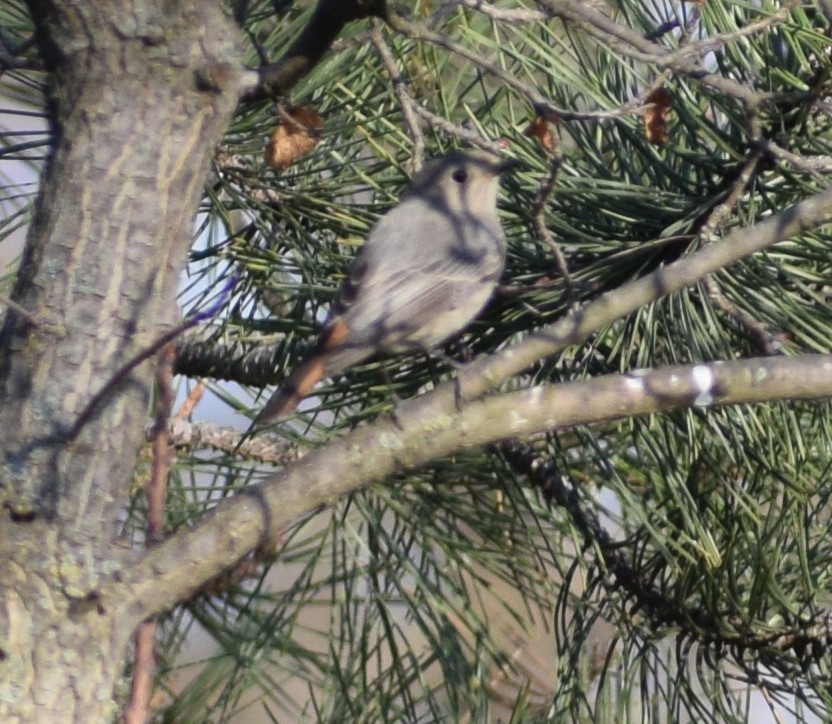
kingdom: Animalia
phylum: Chordata
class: Aves
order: Passeriformes
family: Muscicapidae
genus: Phoenicurus
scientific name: Phoenicurus ochruros
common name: Black redstart
